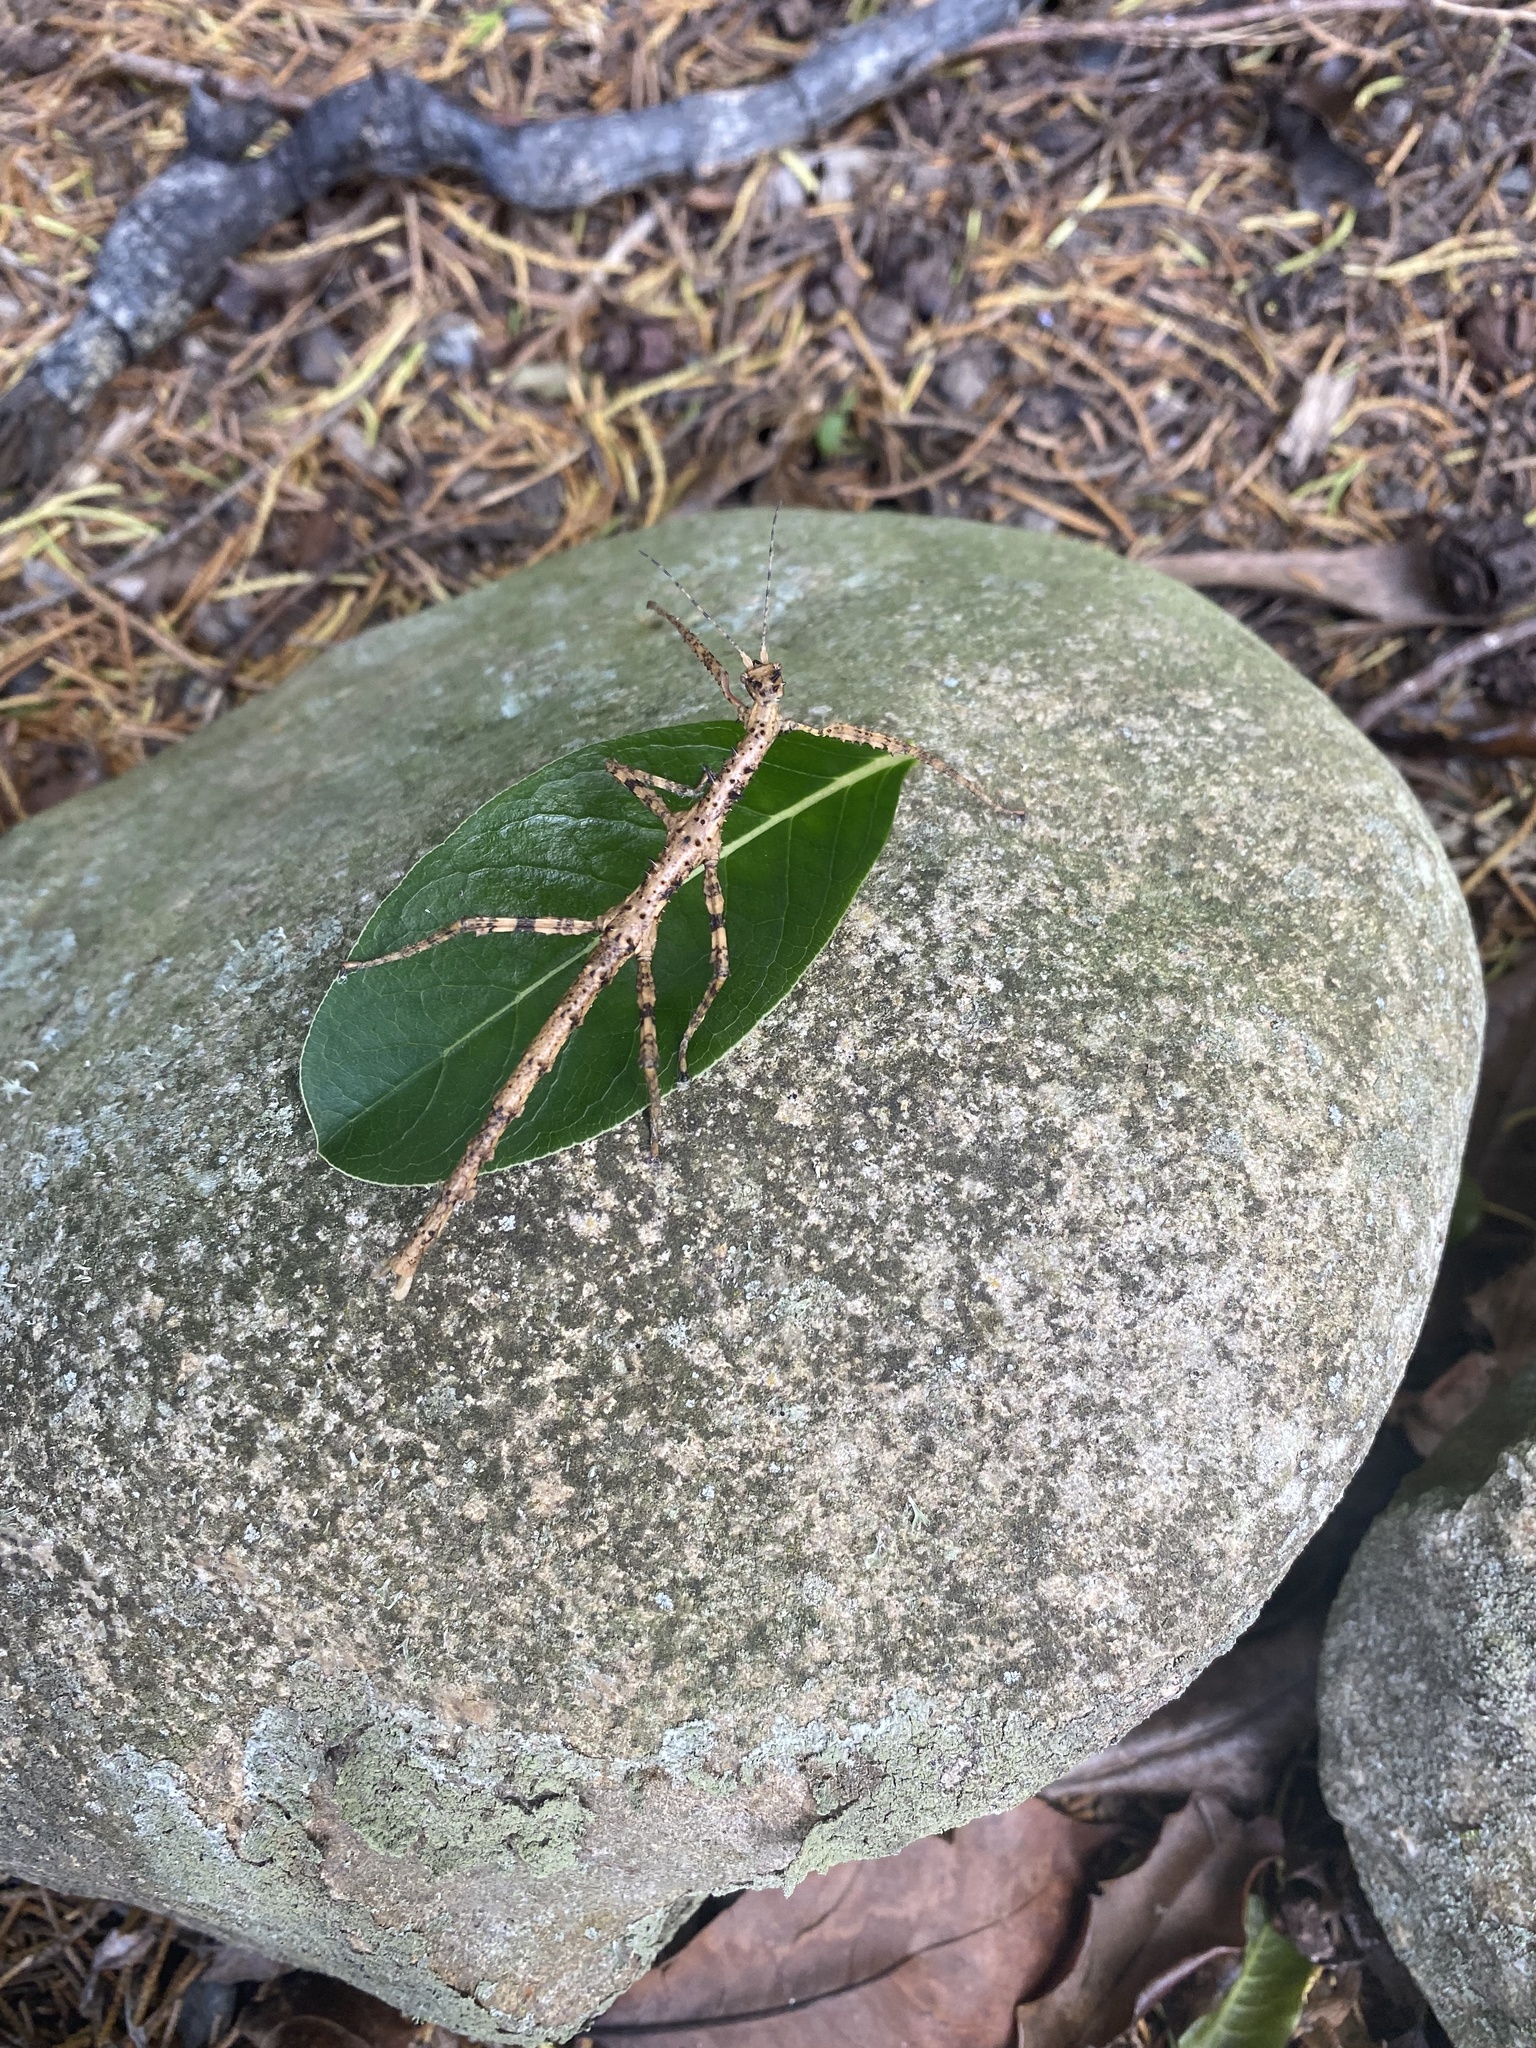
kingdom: Animalia
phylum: Arthropoda
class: Insecta
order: Phasmida
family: Phasmatidae
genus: Acanthoxyla
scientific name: Acanthoxyla prasina
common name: Black-spined stick insect
